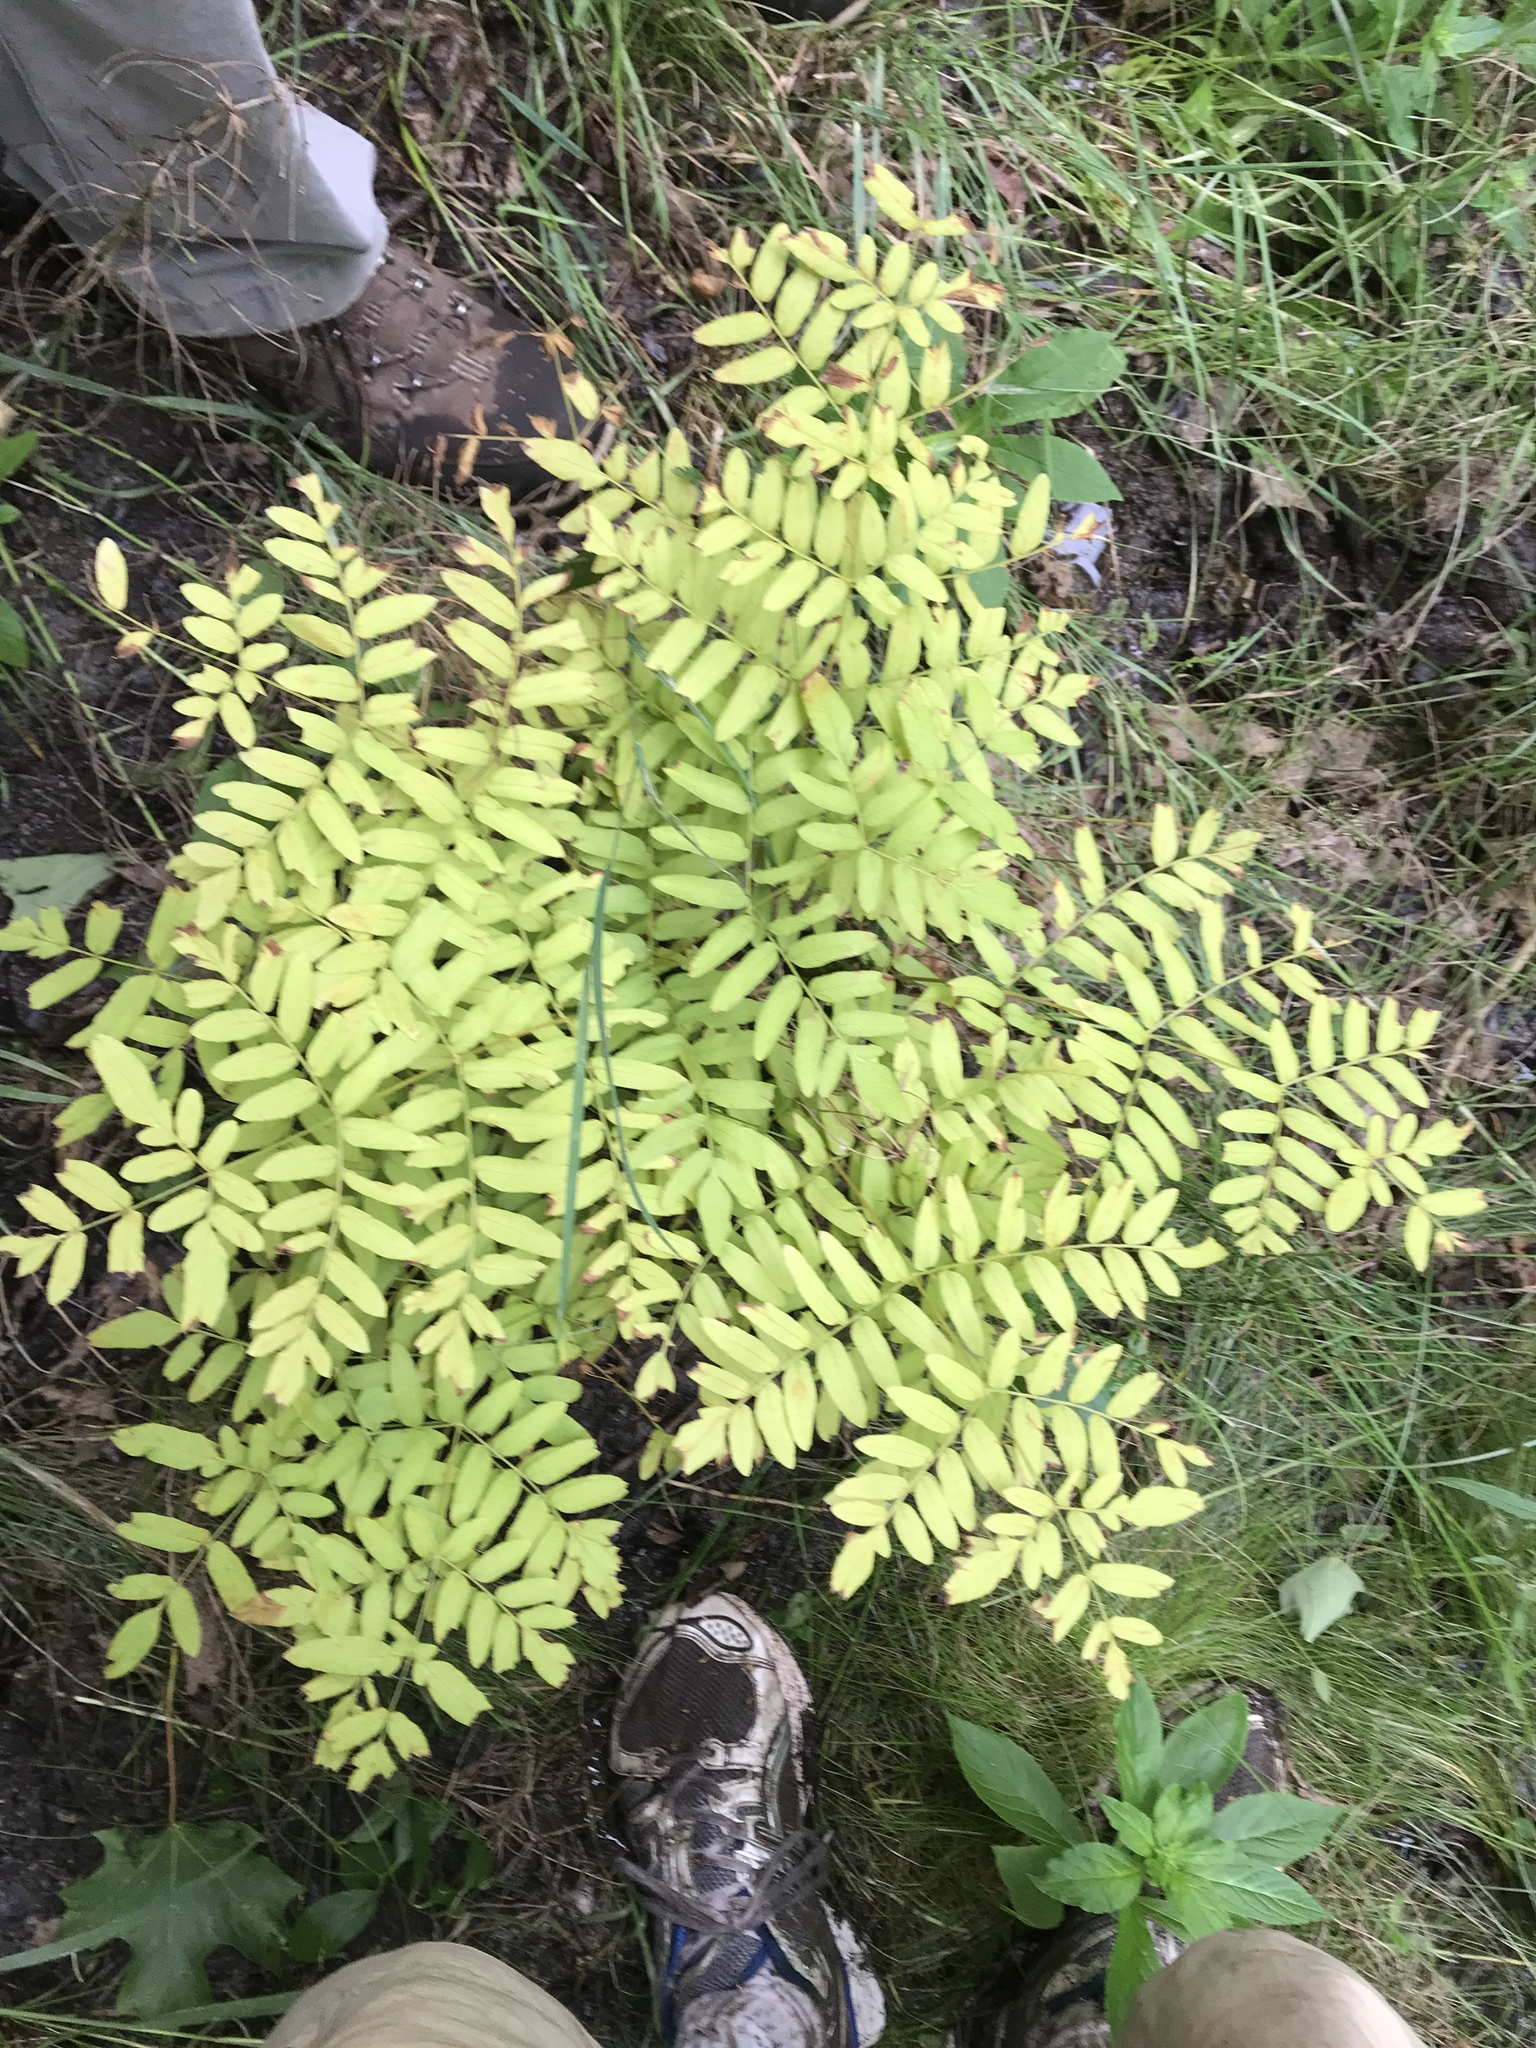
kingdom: Plantae
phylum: Tracheophyta
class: Polypodiopsida
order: Osmundales
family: Osmundaceae
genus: Osmunda
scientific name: Osmunda spectabilis
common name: American royal fern
